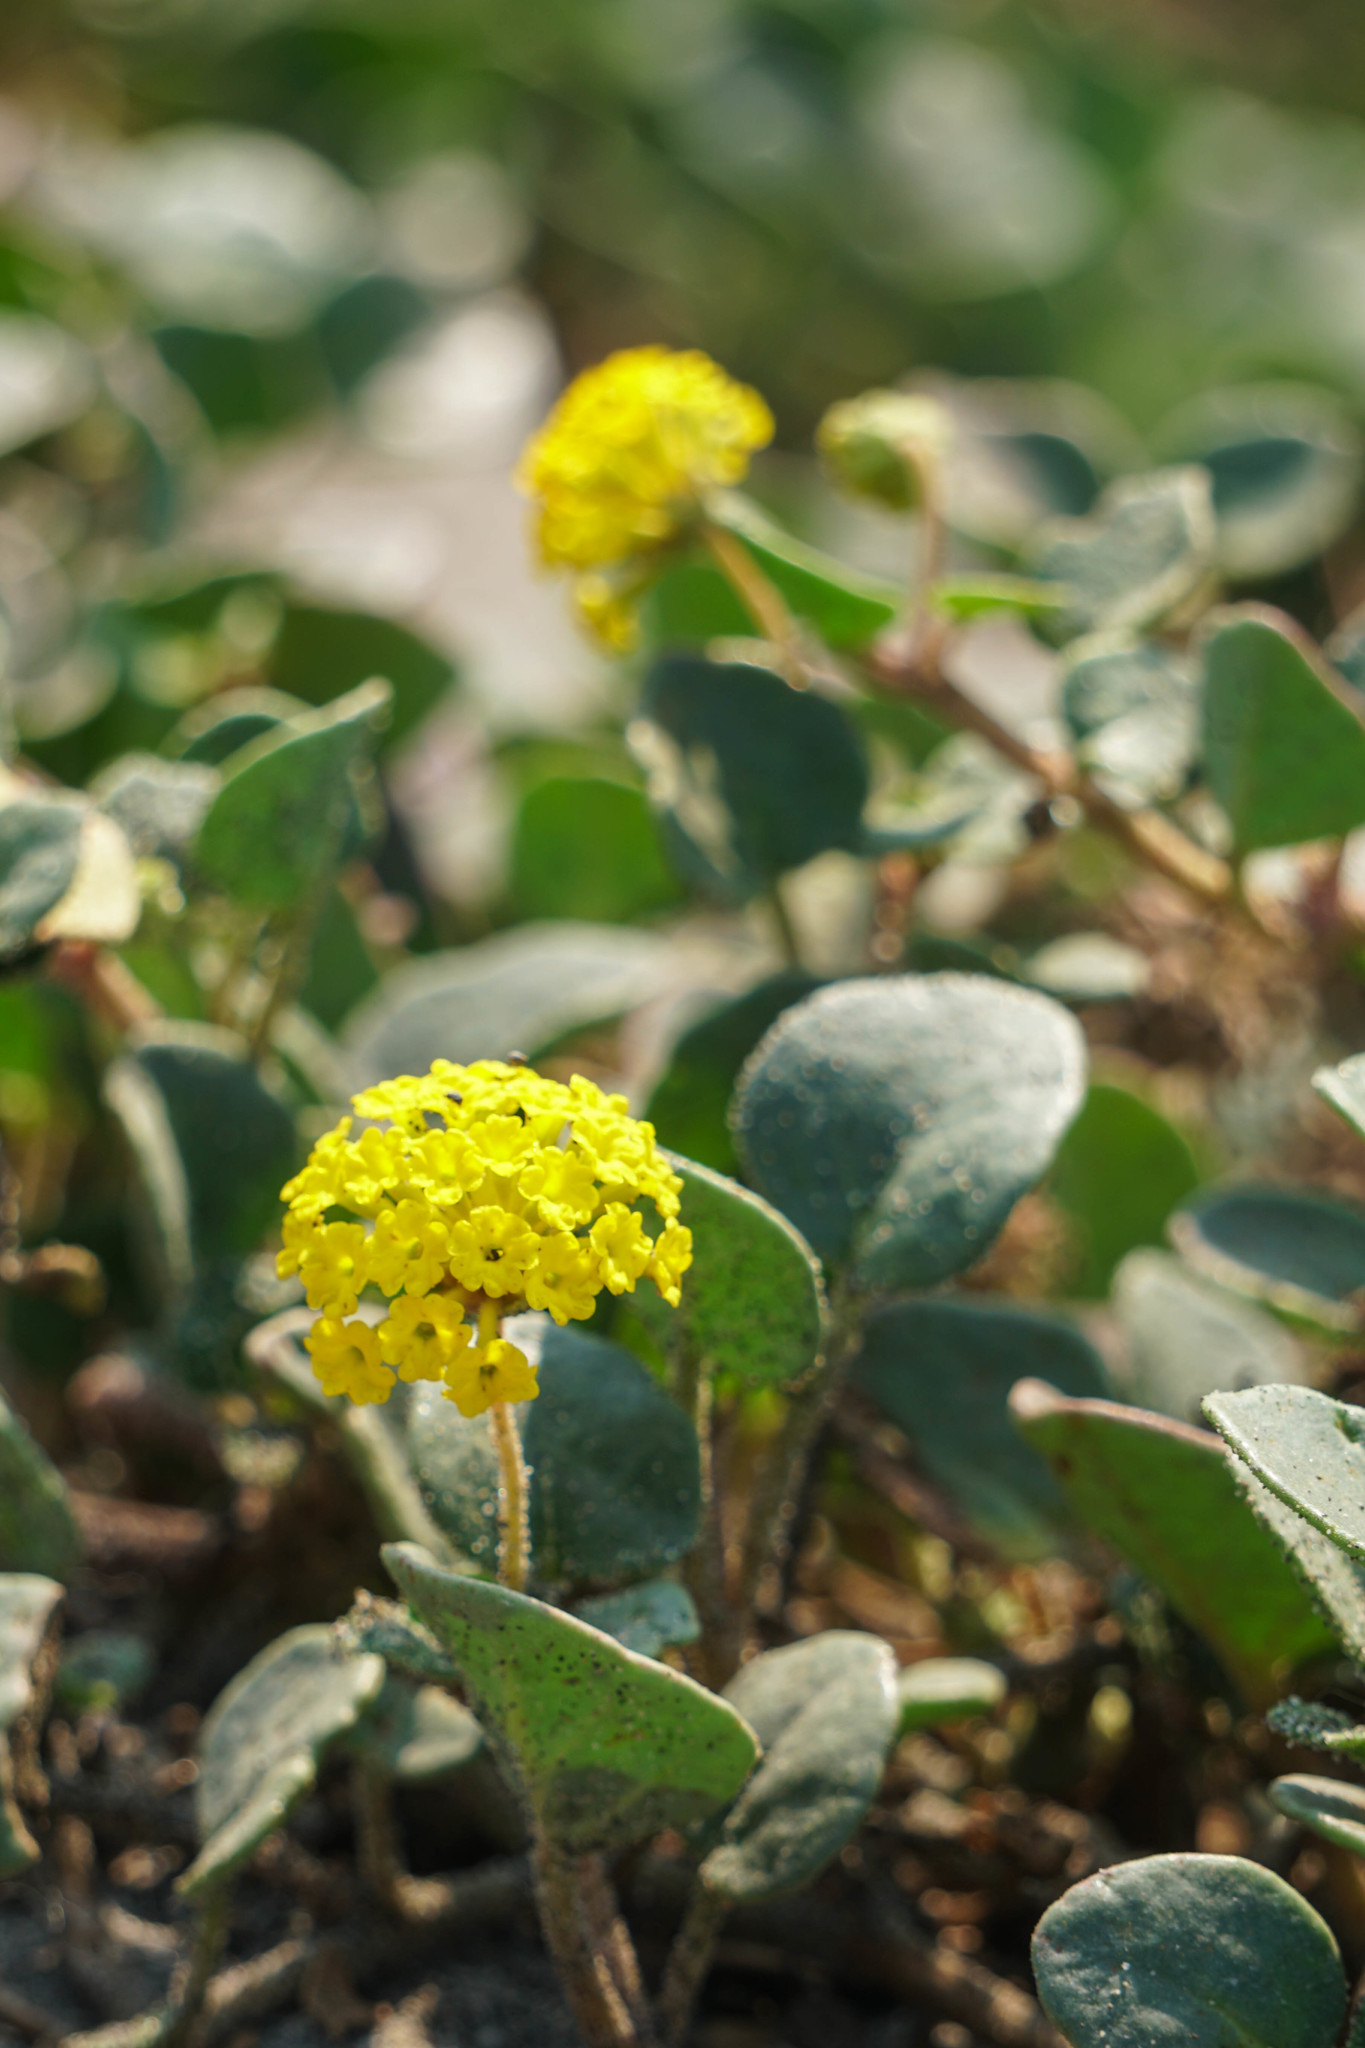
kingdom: Plantae
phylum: Tracheophyta
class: Magnoliopsida
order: Caryophyllales
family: Nyctaginaceae
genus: Abronia
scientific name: Abronia latifolia
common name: Yellow sand-verbena
